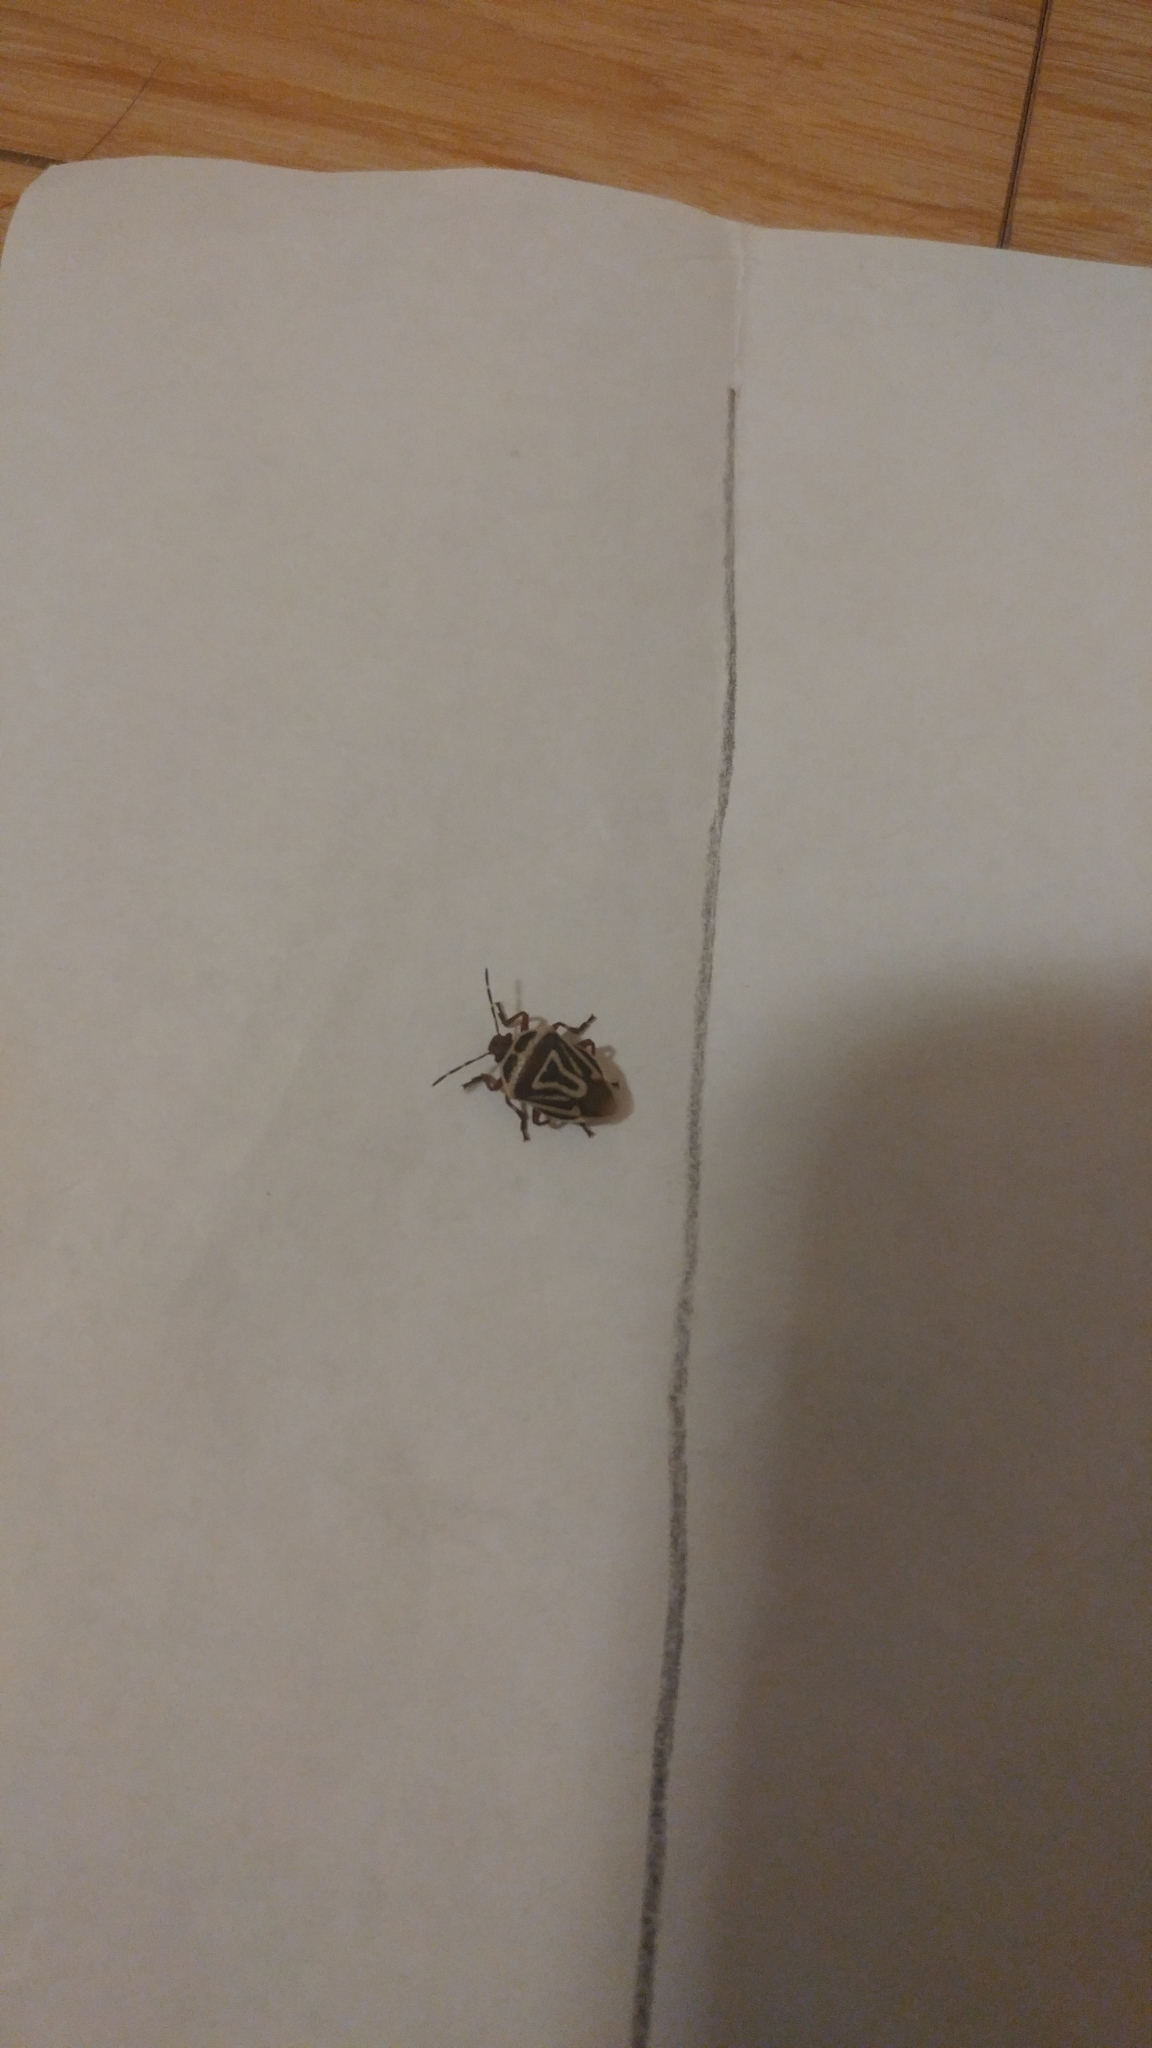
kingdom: Animalia
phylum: Arthropoda
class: Insecta
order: Hemiptera
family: Pentatomidae
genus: Perillus
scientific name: Perillus bioculatus
